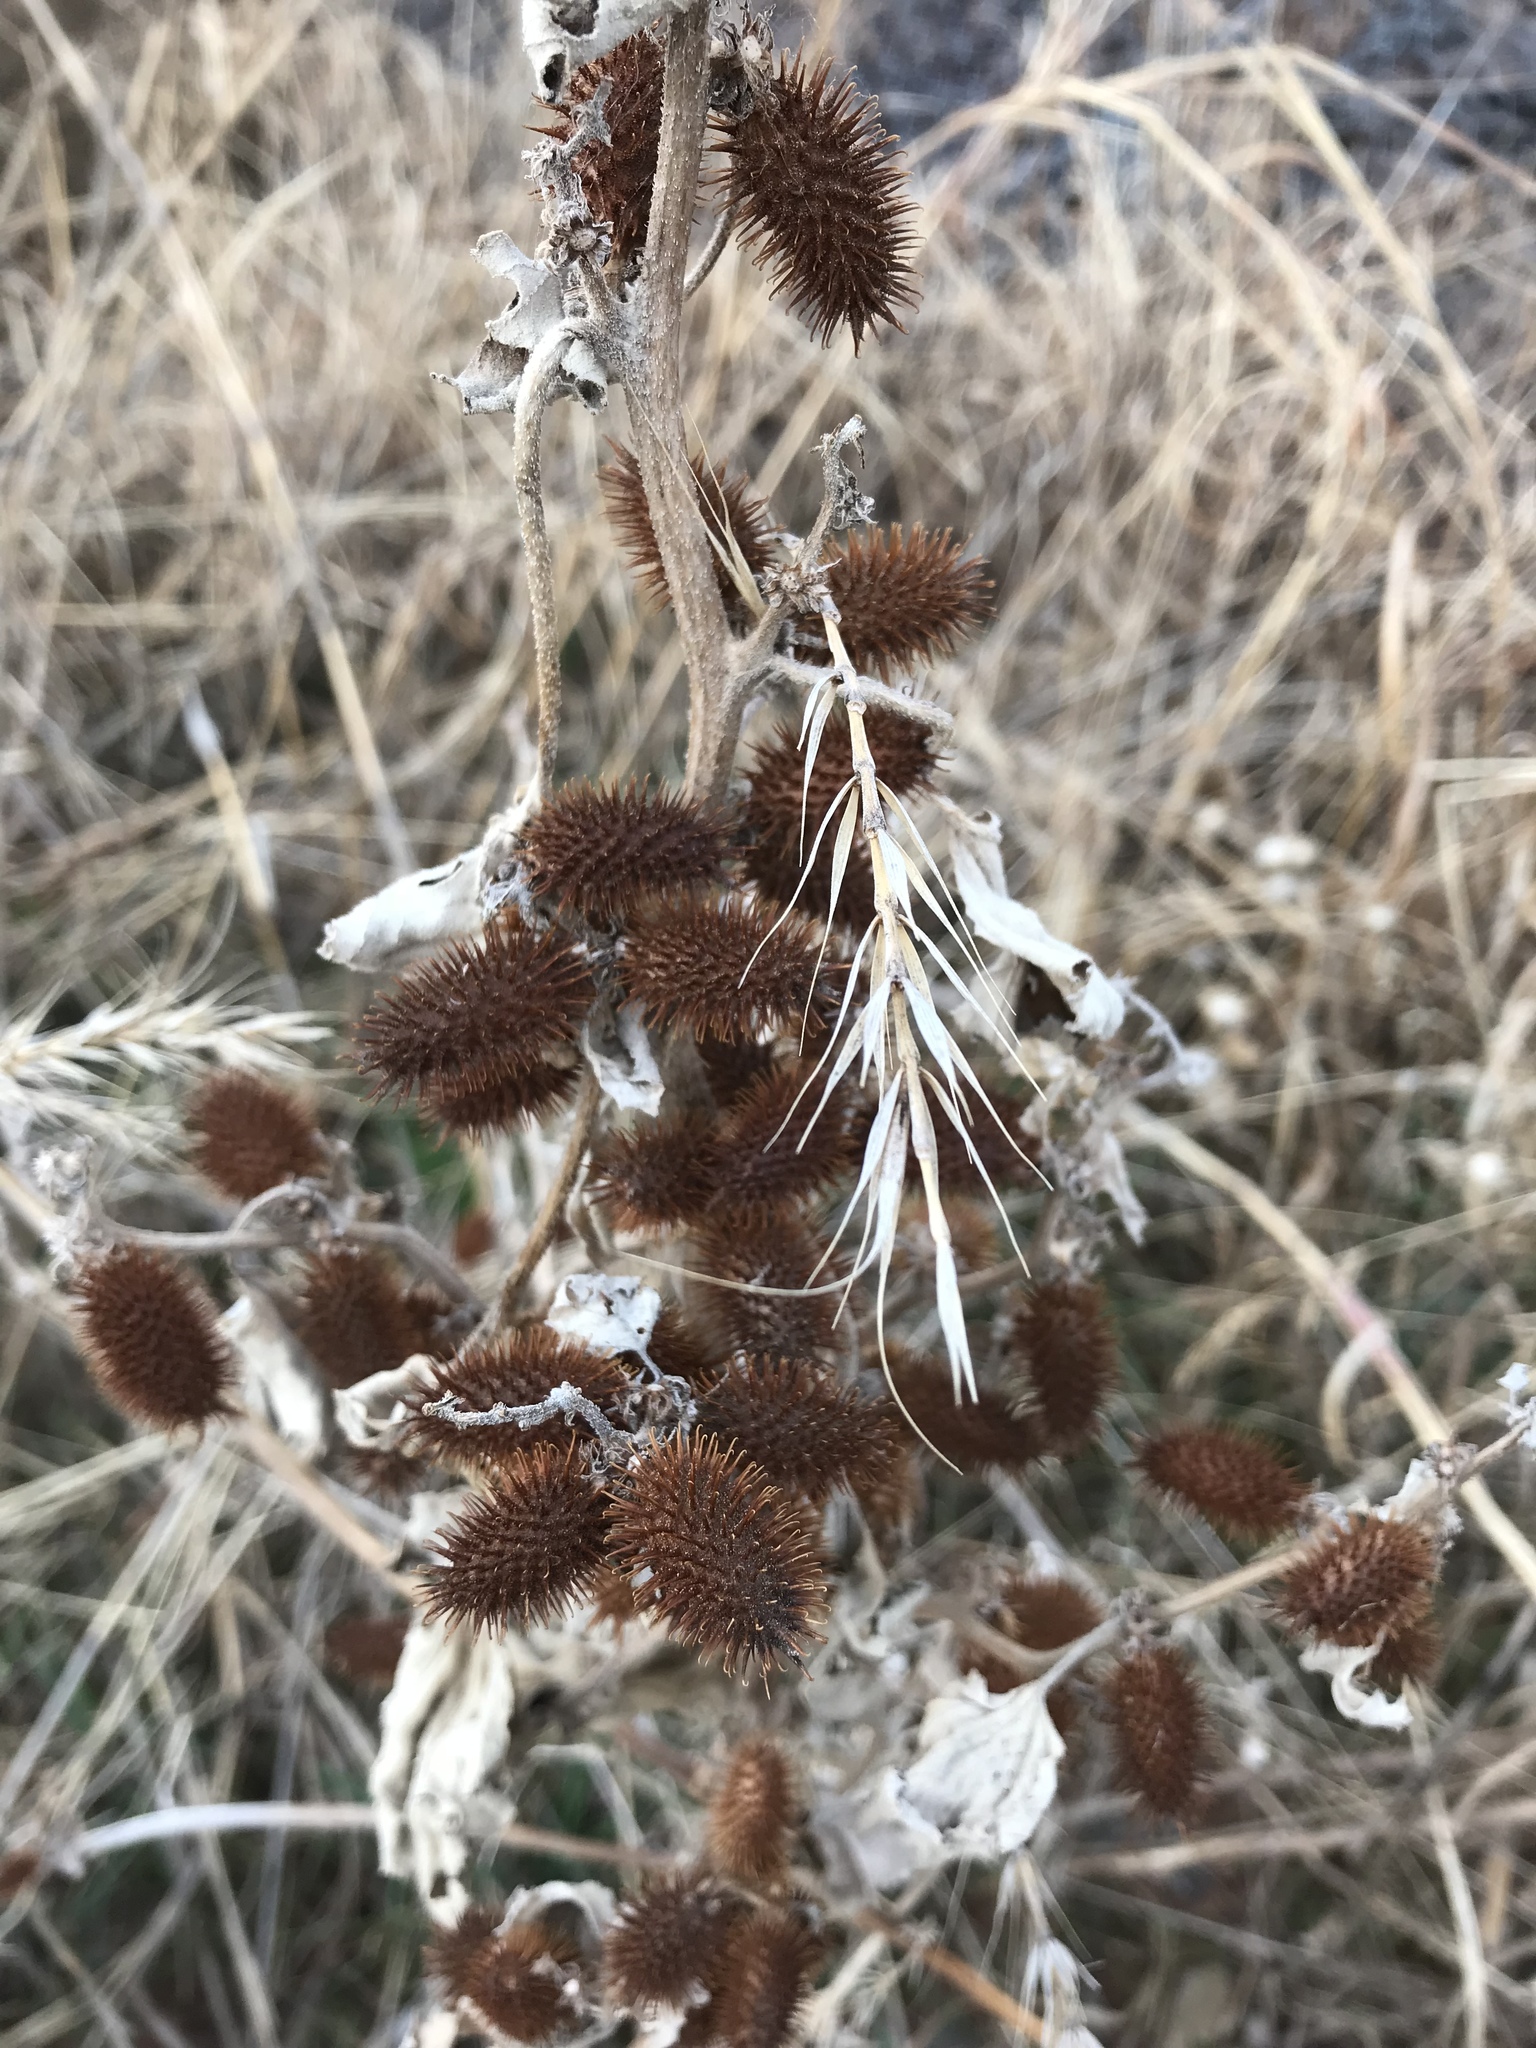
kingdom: Plantae
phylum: Tracheophyta
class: Magnoliopsida
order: Asterales
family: Asteraceae
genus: Xanthium
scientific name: Xanthium strumarium
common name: Rough cocklebur
